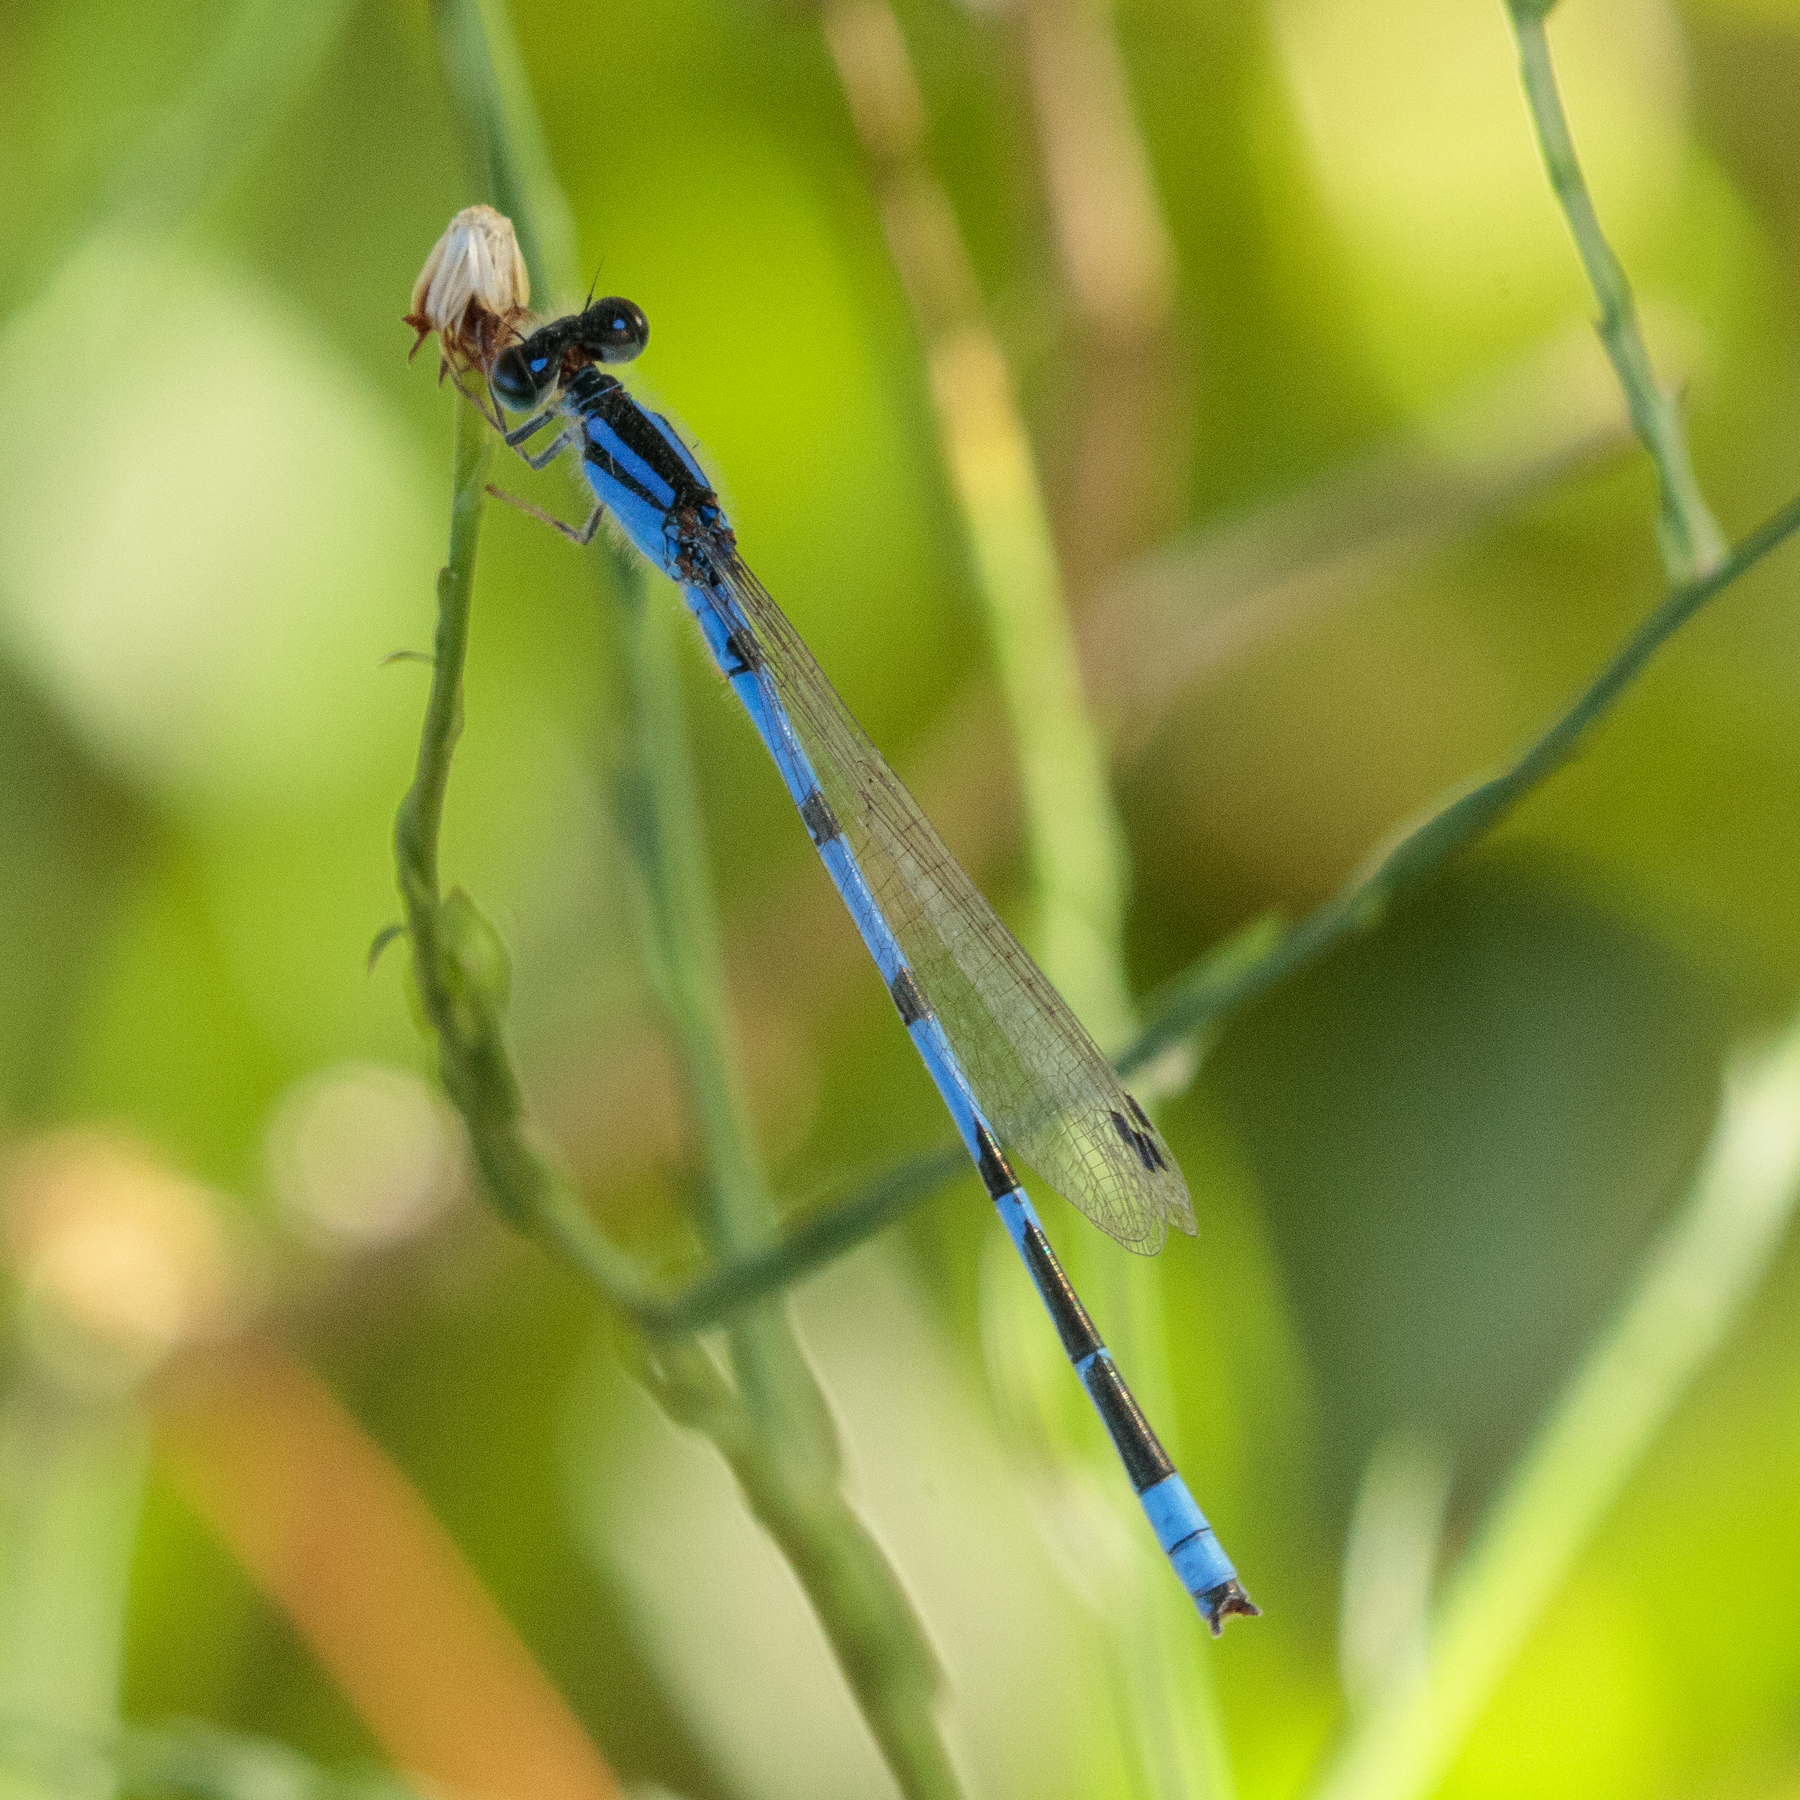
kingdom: Animalia
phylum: Arthropoda
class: Insecta
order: Odonata
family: Coenagrionidae
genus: Enallagma
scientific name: Enallagma civile
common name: Damselfly
